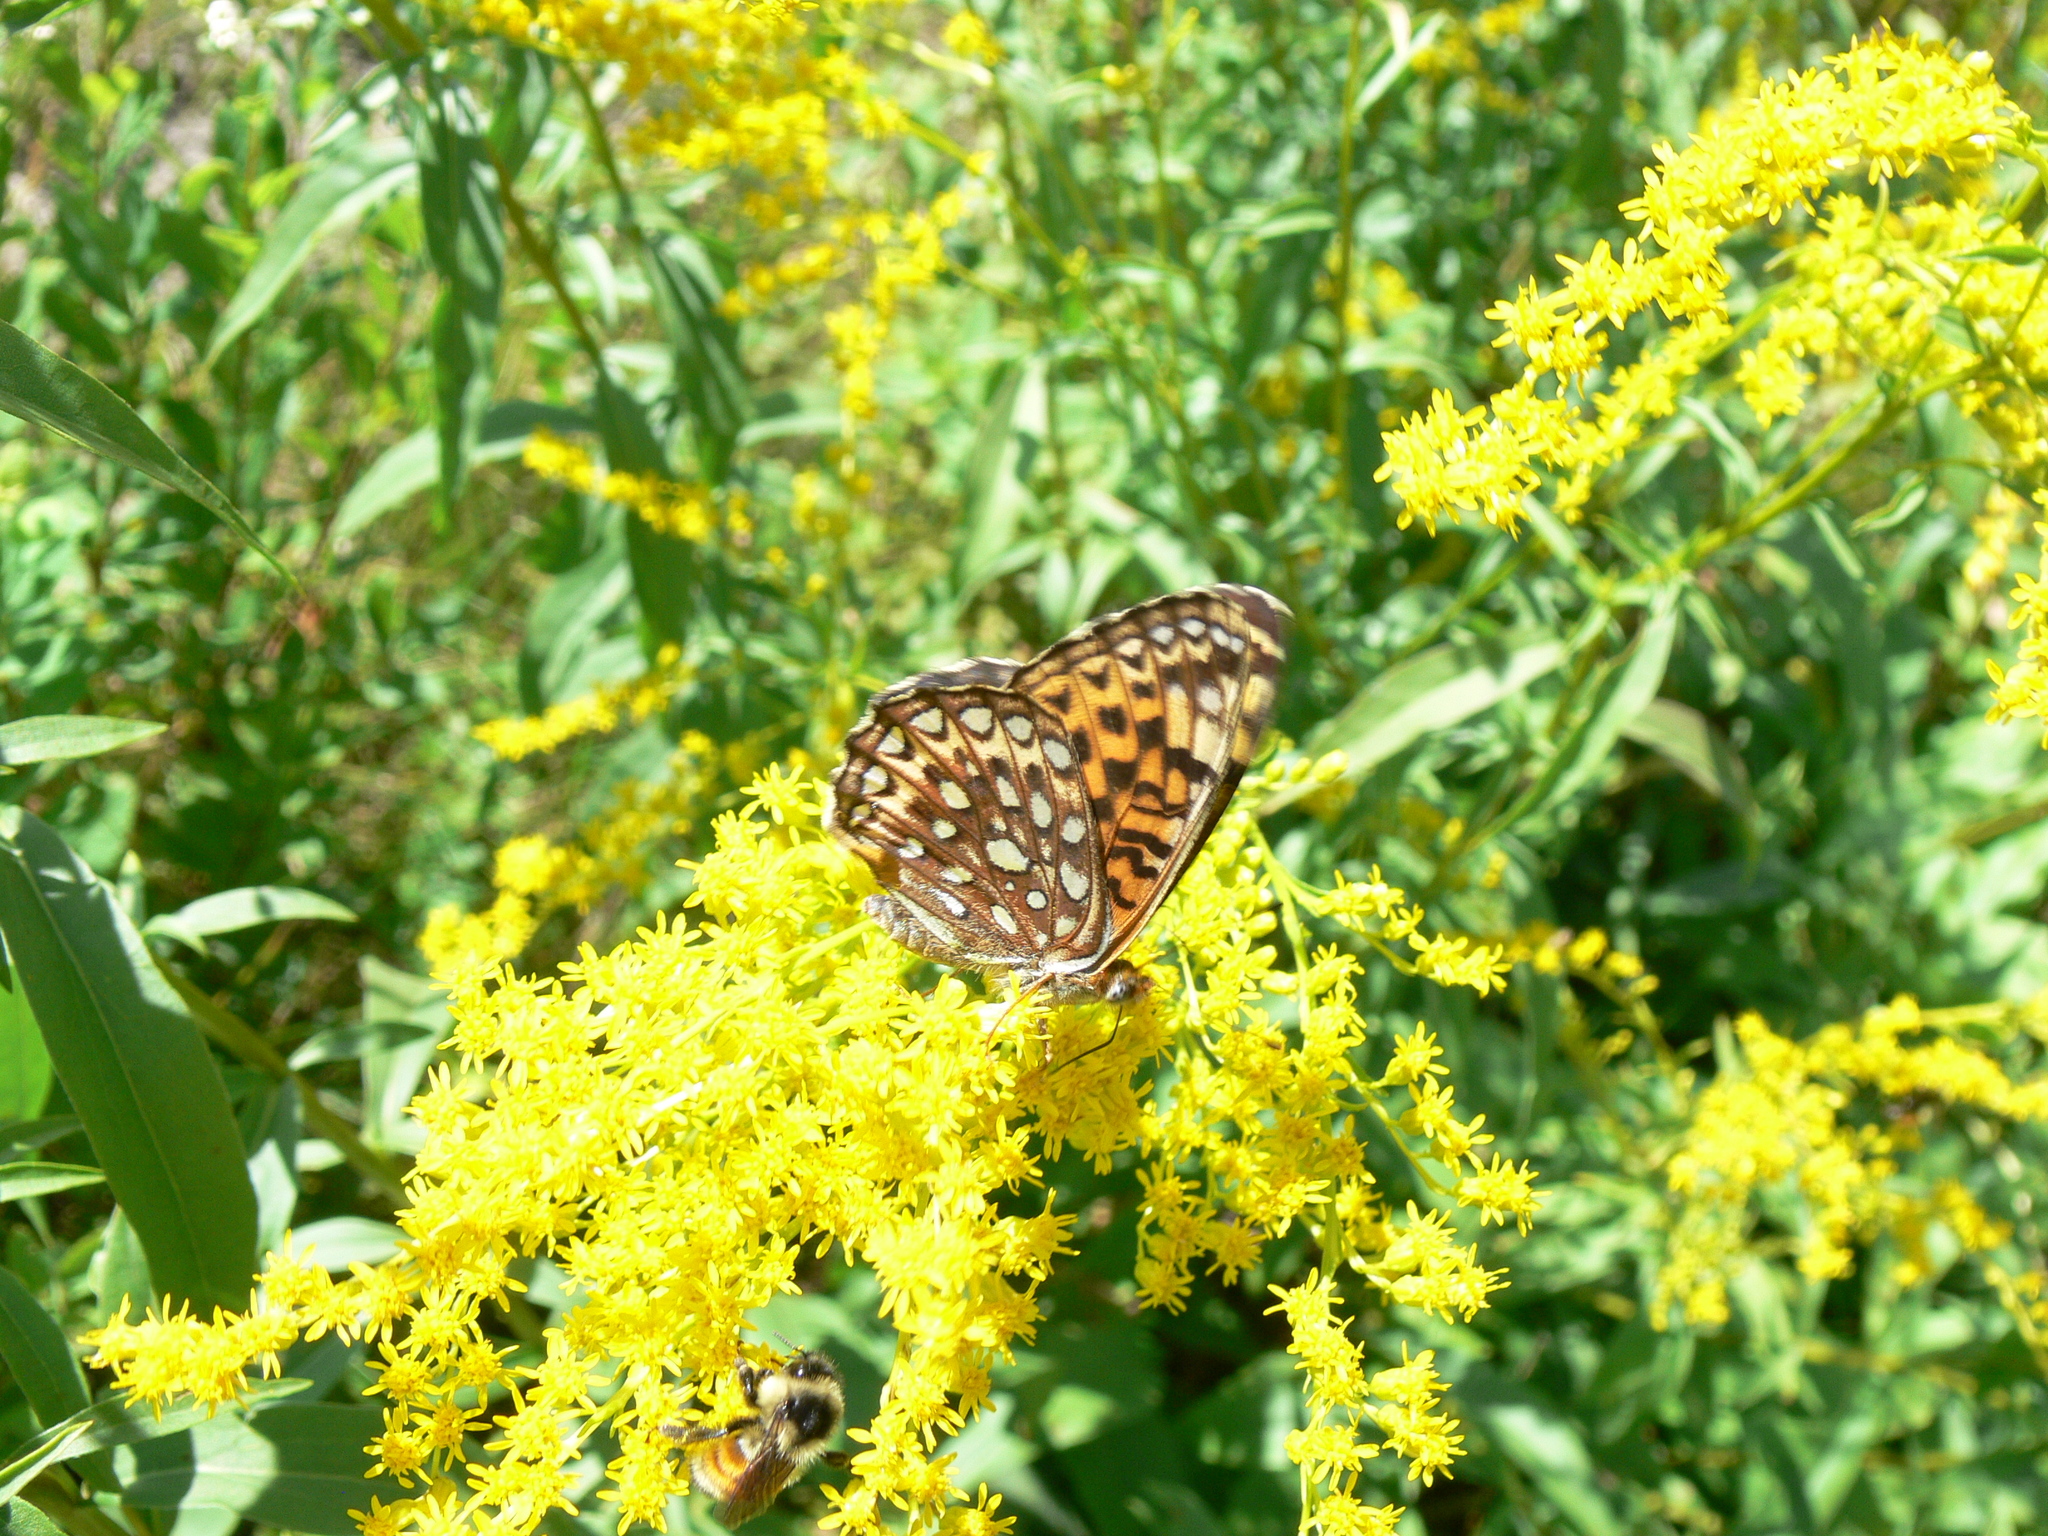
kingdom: Animalia
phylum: Arthropoda
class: Insecta
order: Lepidoptera
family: Nymphalidae
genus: Speyeria
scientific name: Speyeria atlantis
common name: Atlantis fritillary
